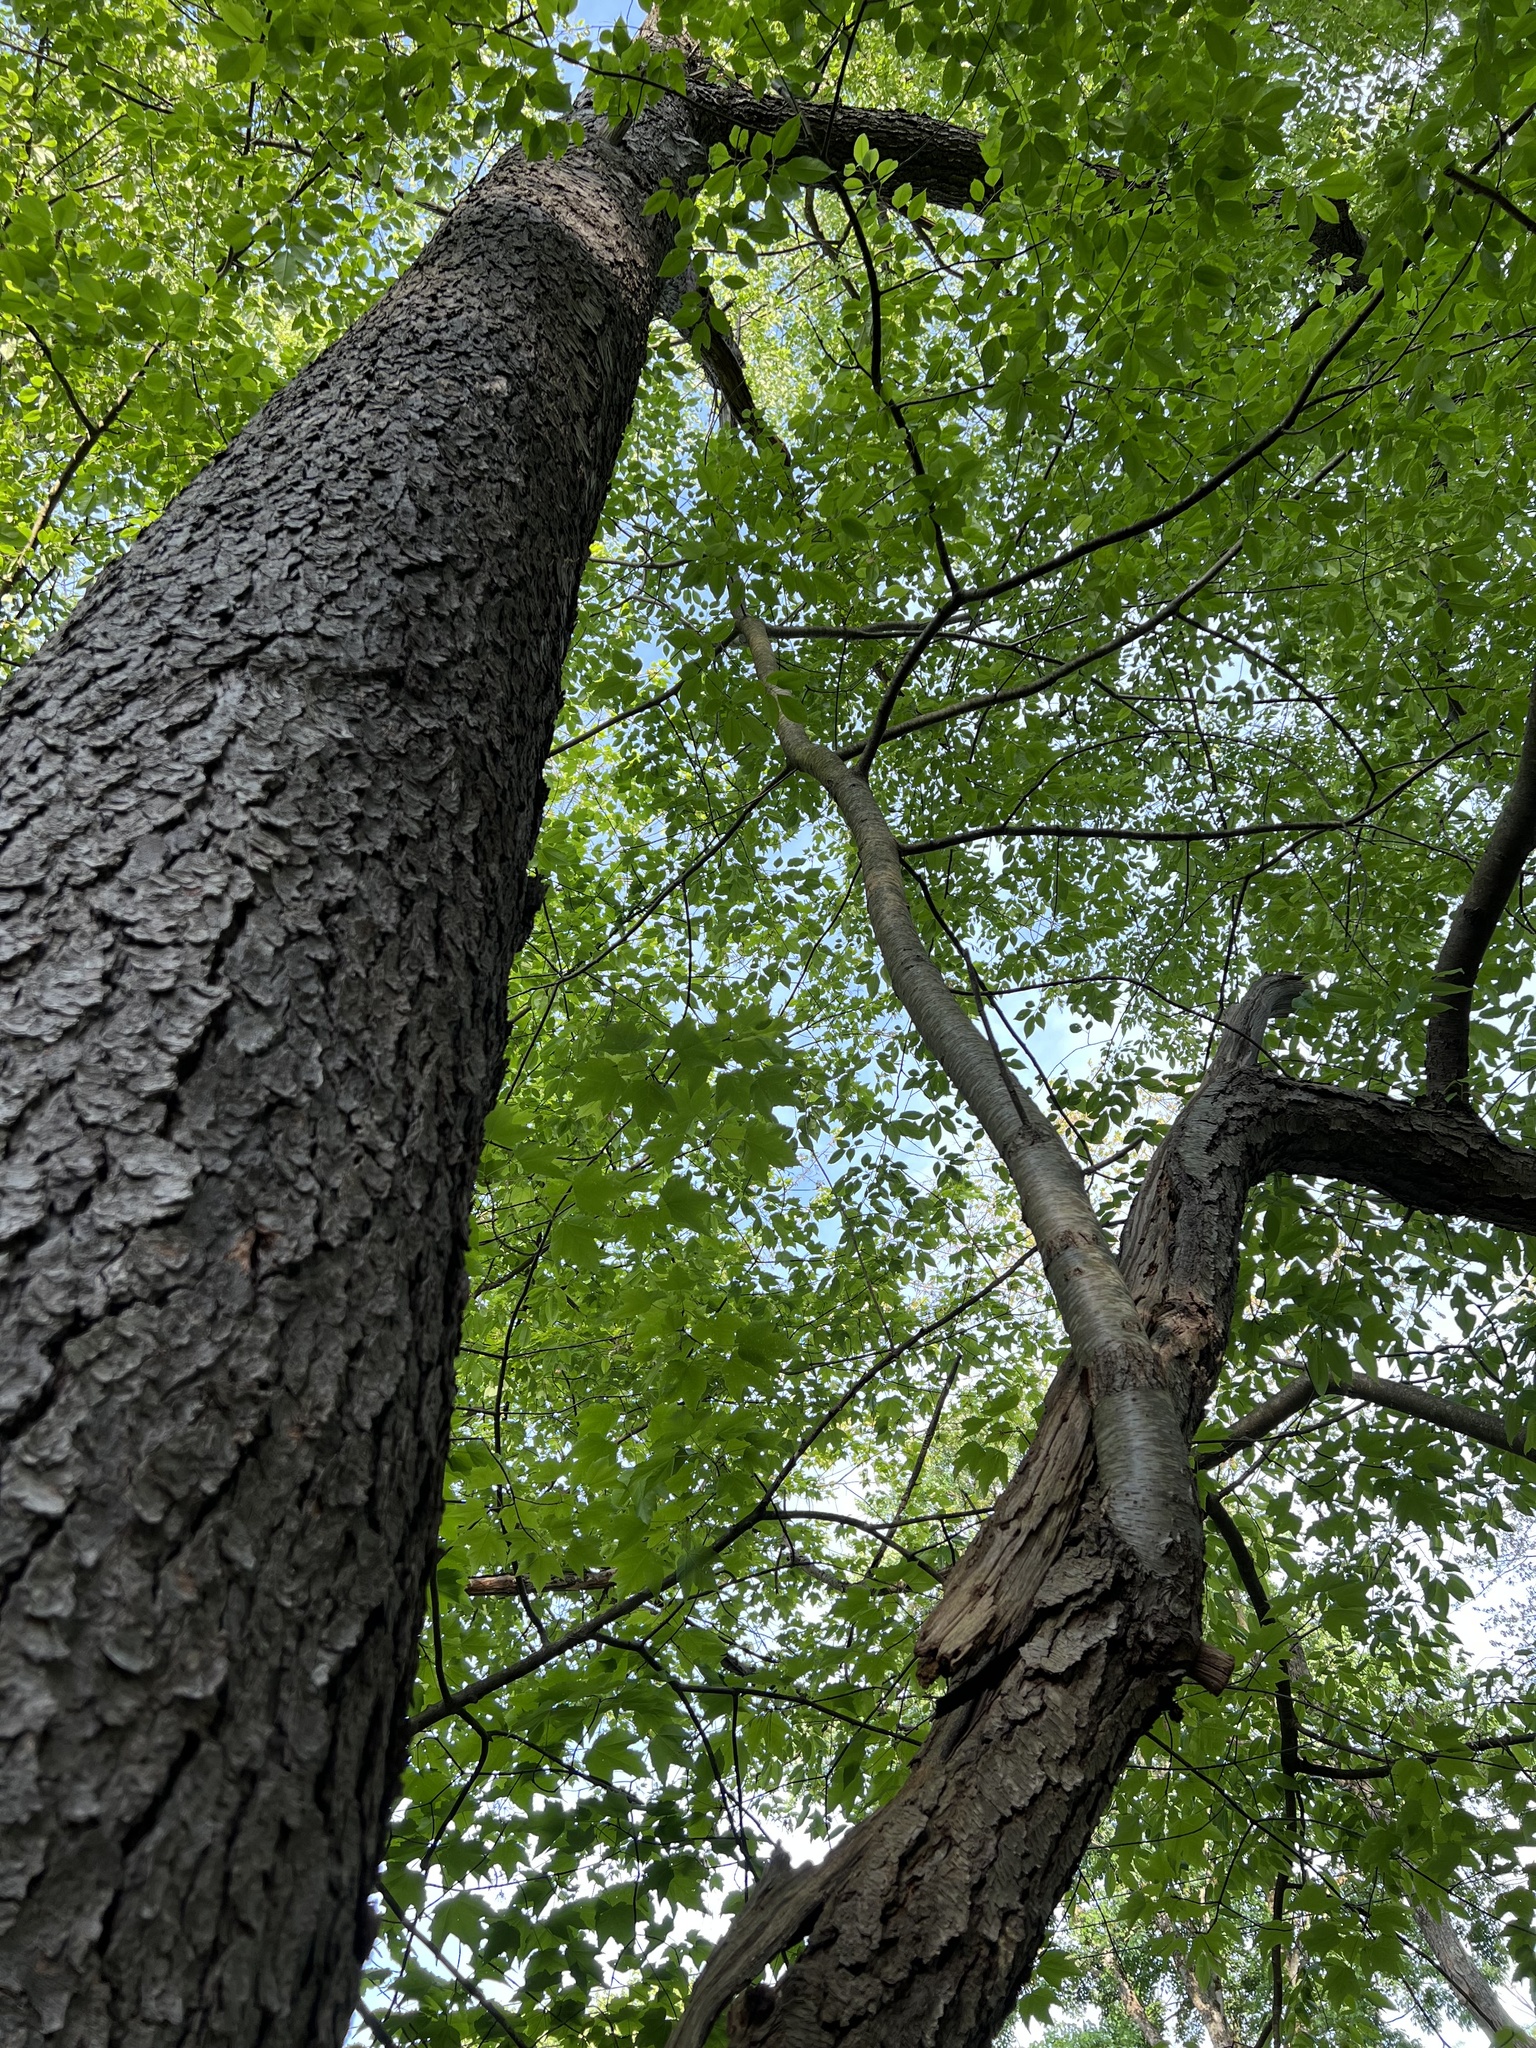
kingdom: Plantae
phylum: Tracheophyta
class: Magnoliopsida
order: Rosales
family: Rosaceae
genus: Prunus
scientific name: Prunus serotina
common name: Black cherry
